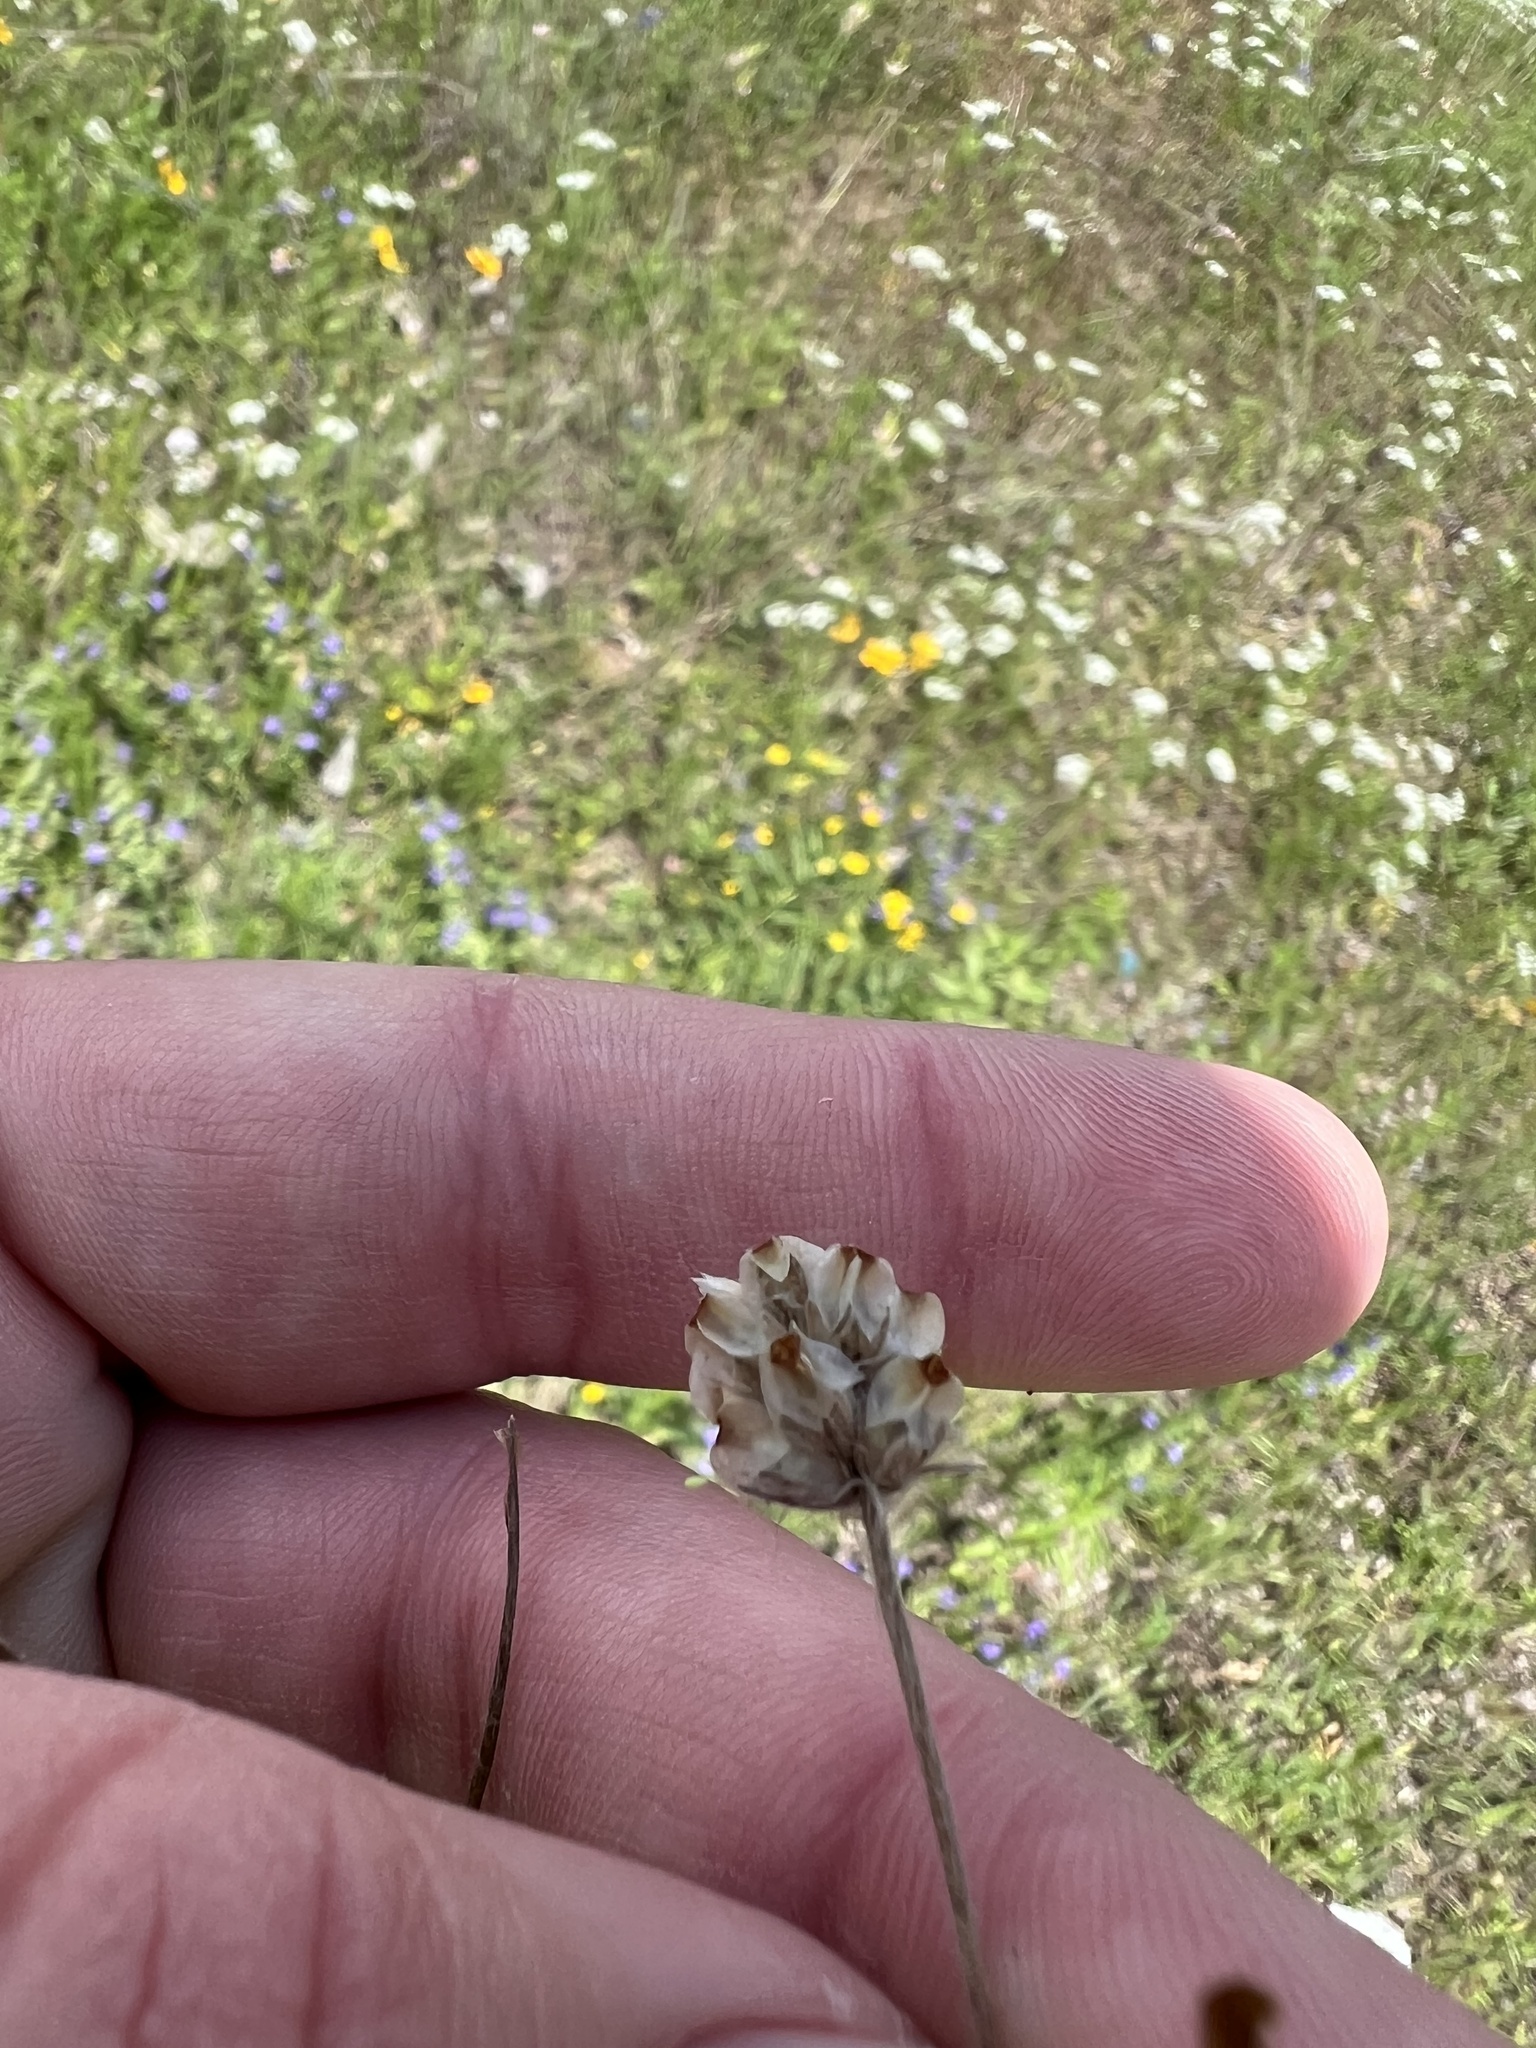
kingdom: Plantae
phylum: Tracheophyta
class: Magnoliopsida
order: Lamiales
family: Plantaginaceae
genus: Plantago
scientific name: Plantago helleri
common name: Heller's plantain
